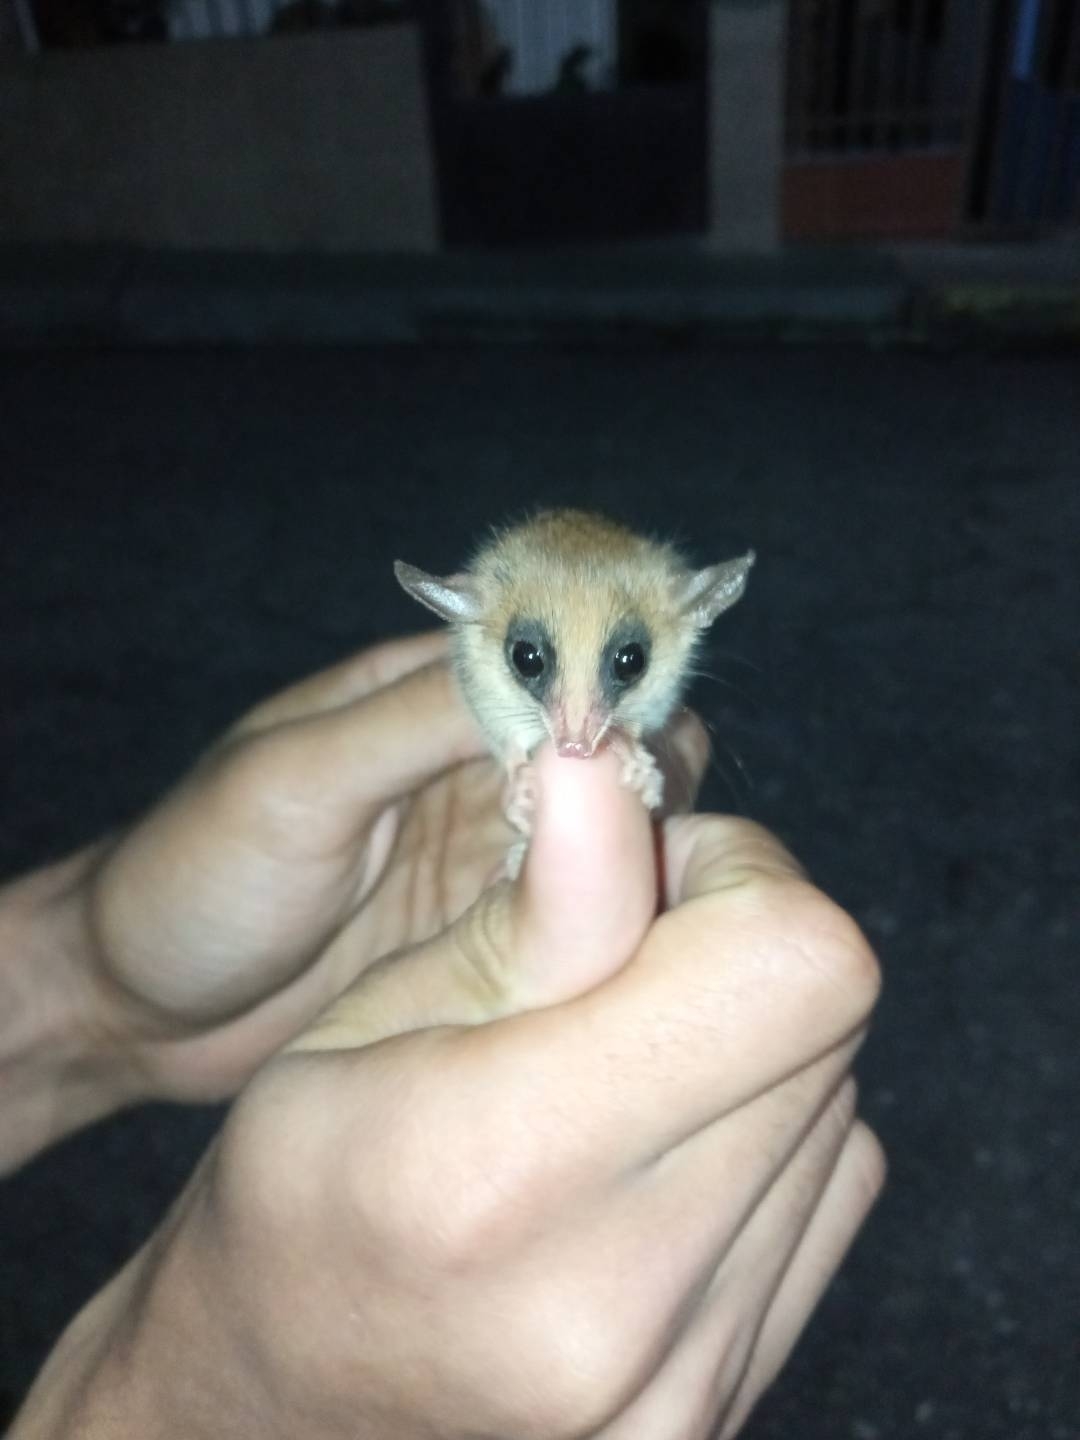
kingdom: Animalia
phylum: Chordata
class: Mammalia
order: Didelphimorphia
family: Didelphidae
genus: Marmosa
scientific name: Marmosa murina
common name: Linnaeus's mouse opossum
